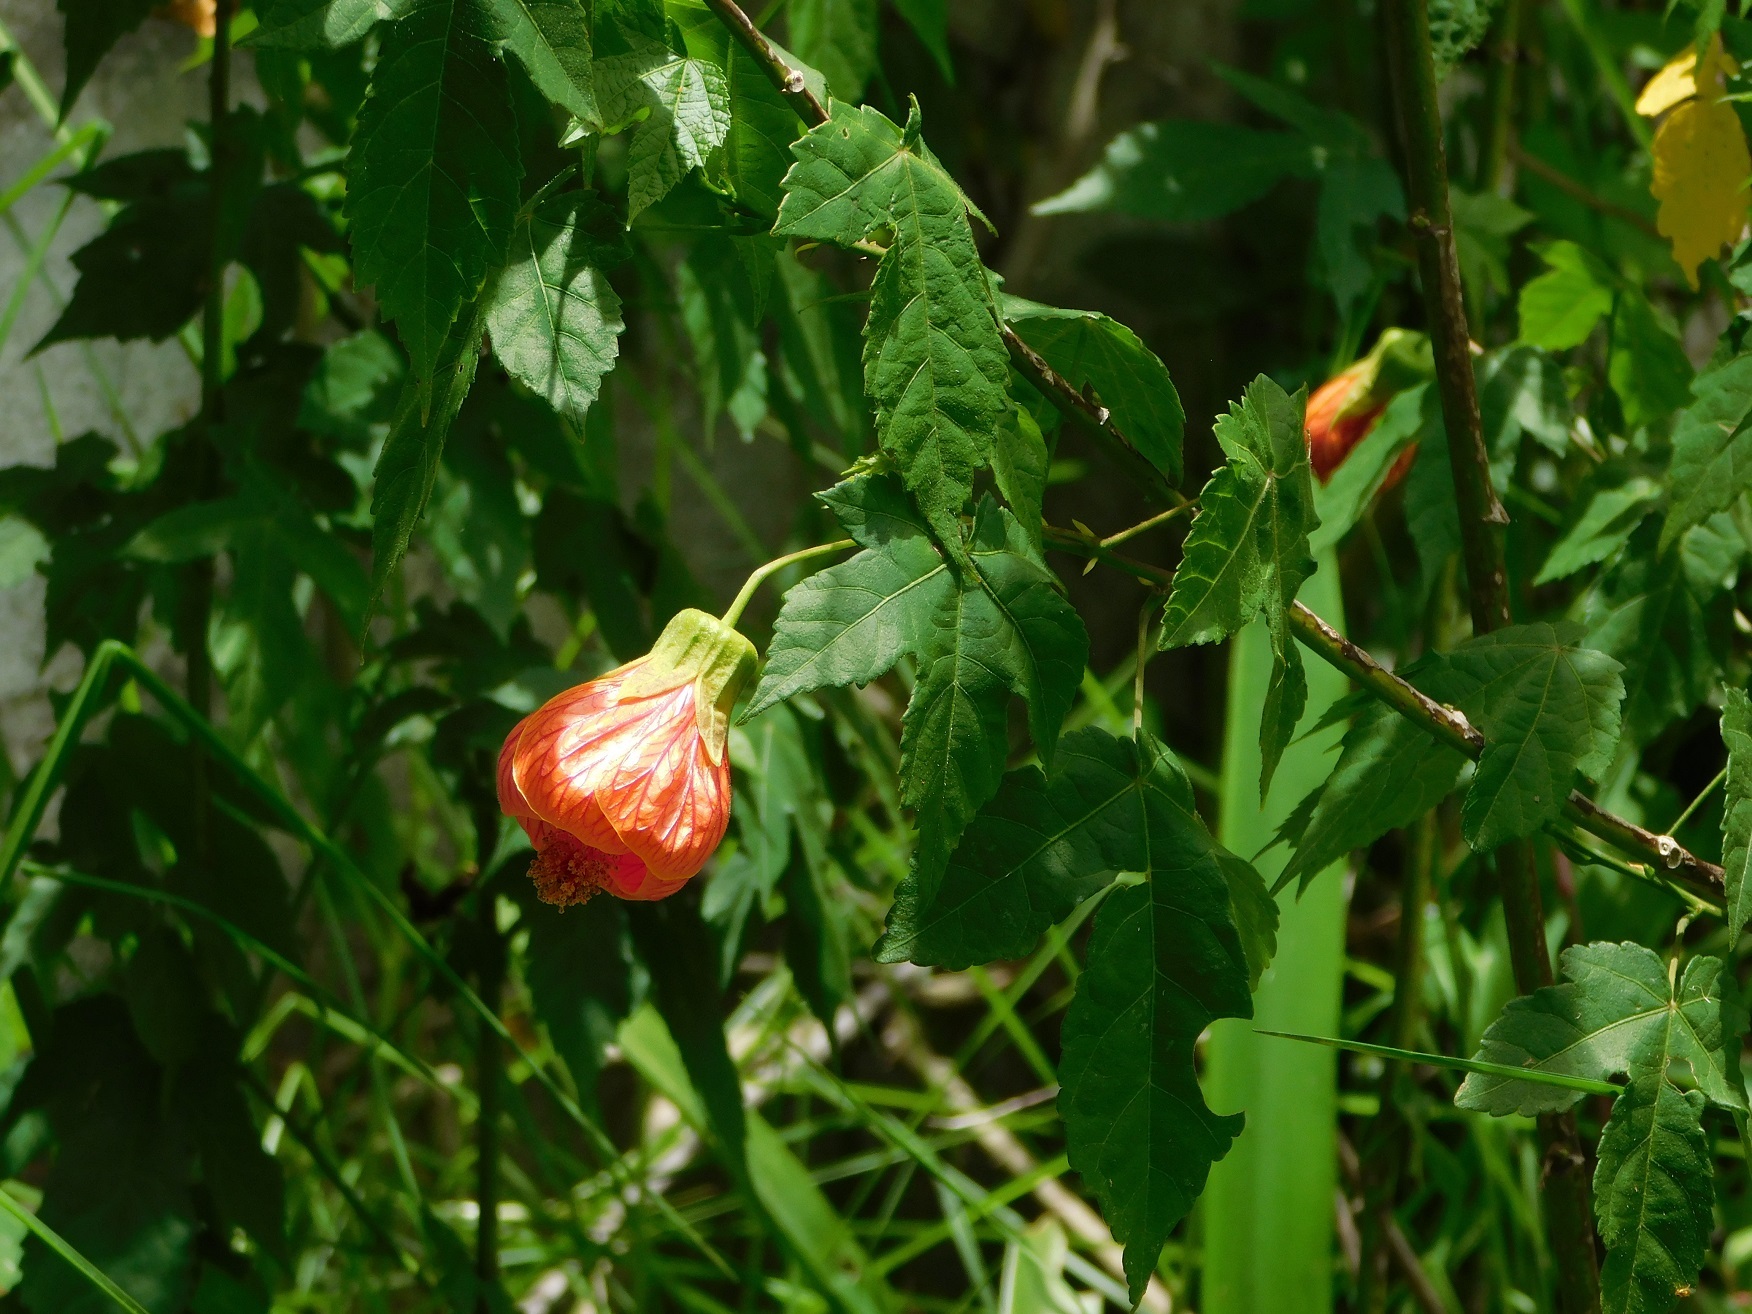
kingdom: Plantae
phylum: Tracheophyta
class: Magnoliopsida
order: Malvales
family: Malvaceae
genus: Callianthe
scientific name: Callianthe picta
